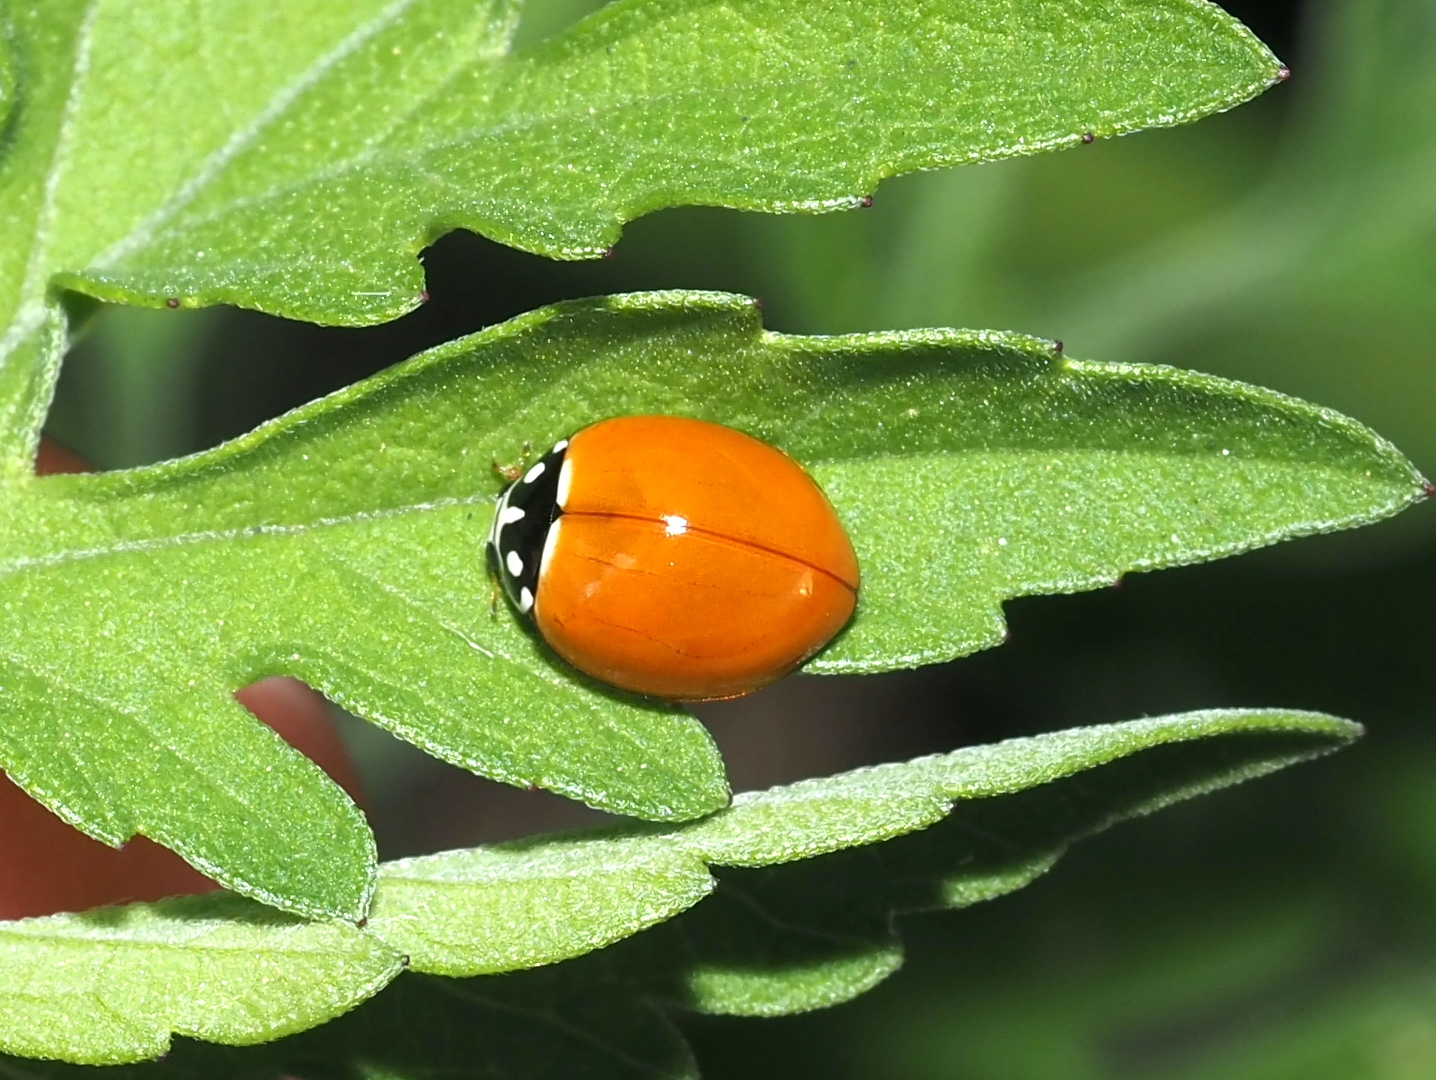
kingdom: Animalia
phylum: Arthropoda
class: Insecta
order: Coleoptera
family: Coccinellidae
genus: Cycloneda
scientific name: Cycloneda sanguinea
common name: Ladybird beetle
